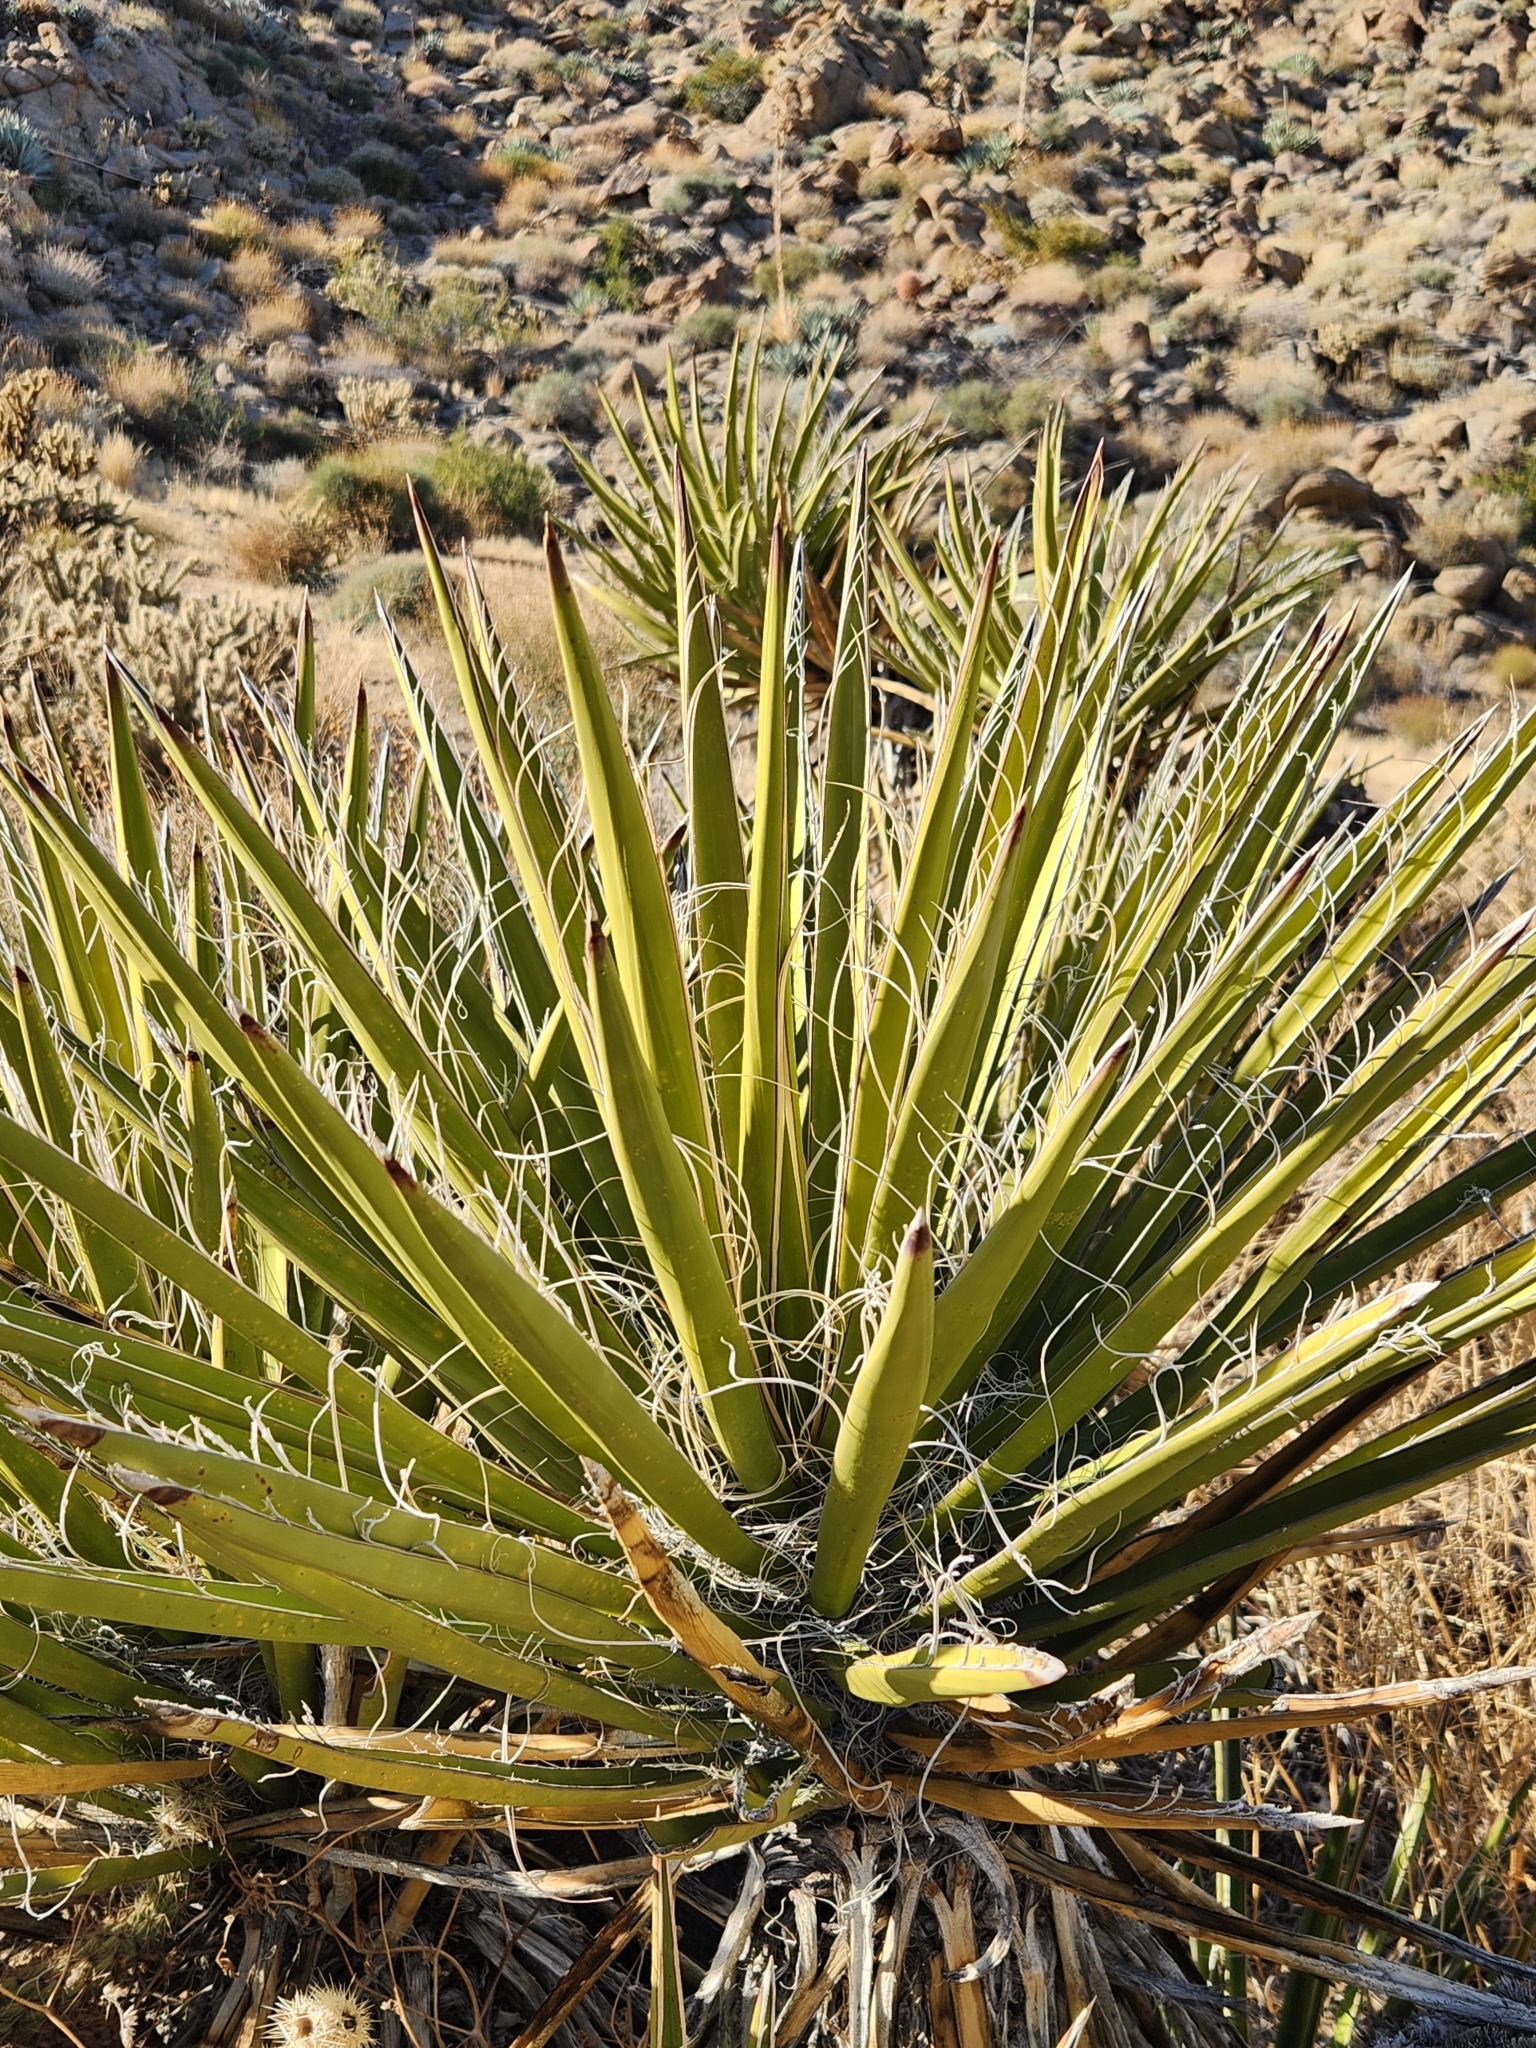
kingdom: Plantae
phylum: Tracheophyta
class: Liliopsida
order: Asparagales
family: Asparagaceae
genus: Yucca
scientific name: Yucca schidigera
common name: Mojave yucca
